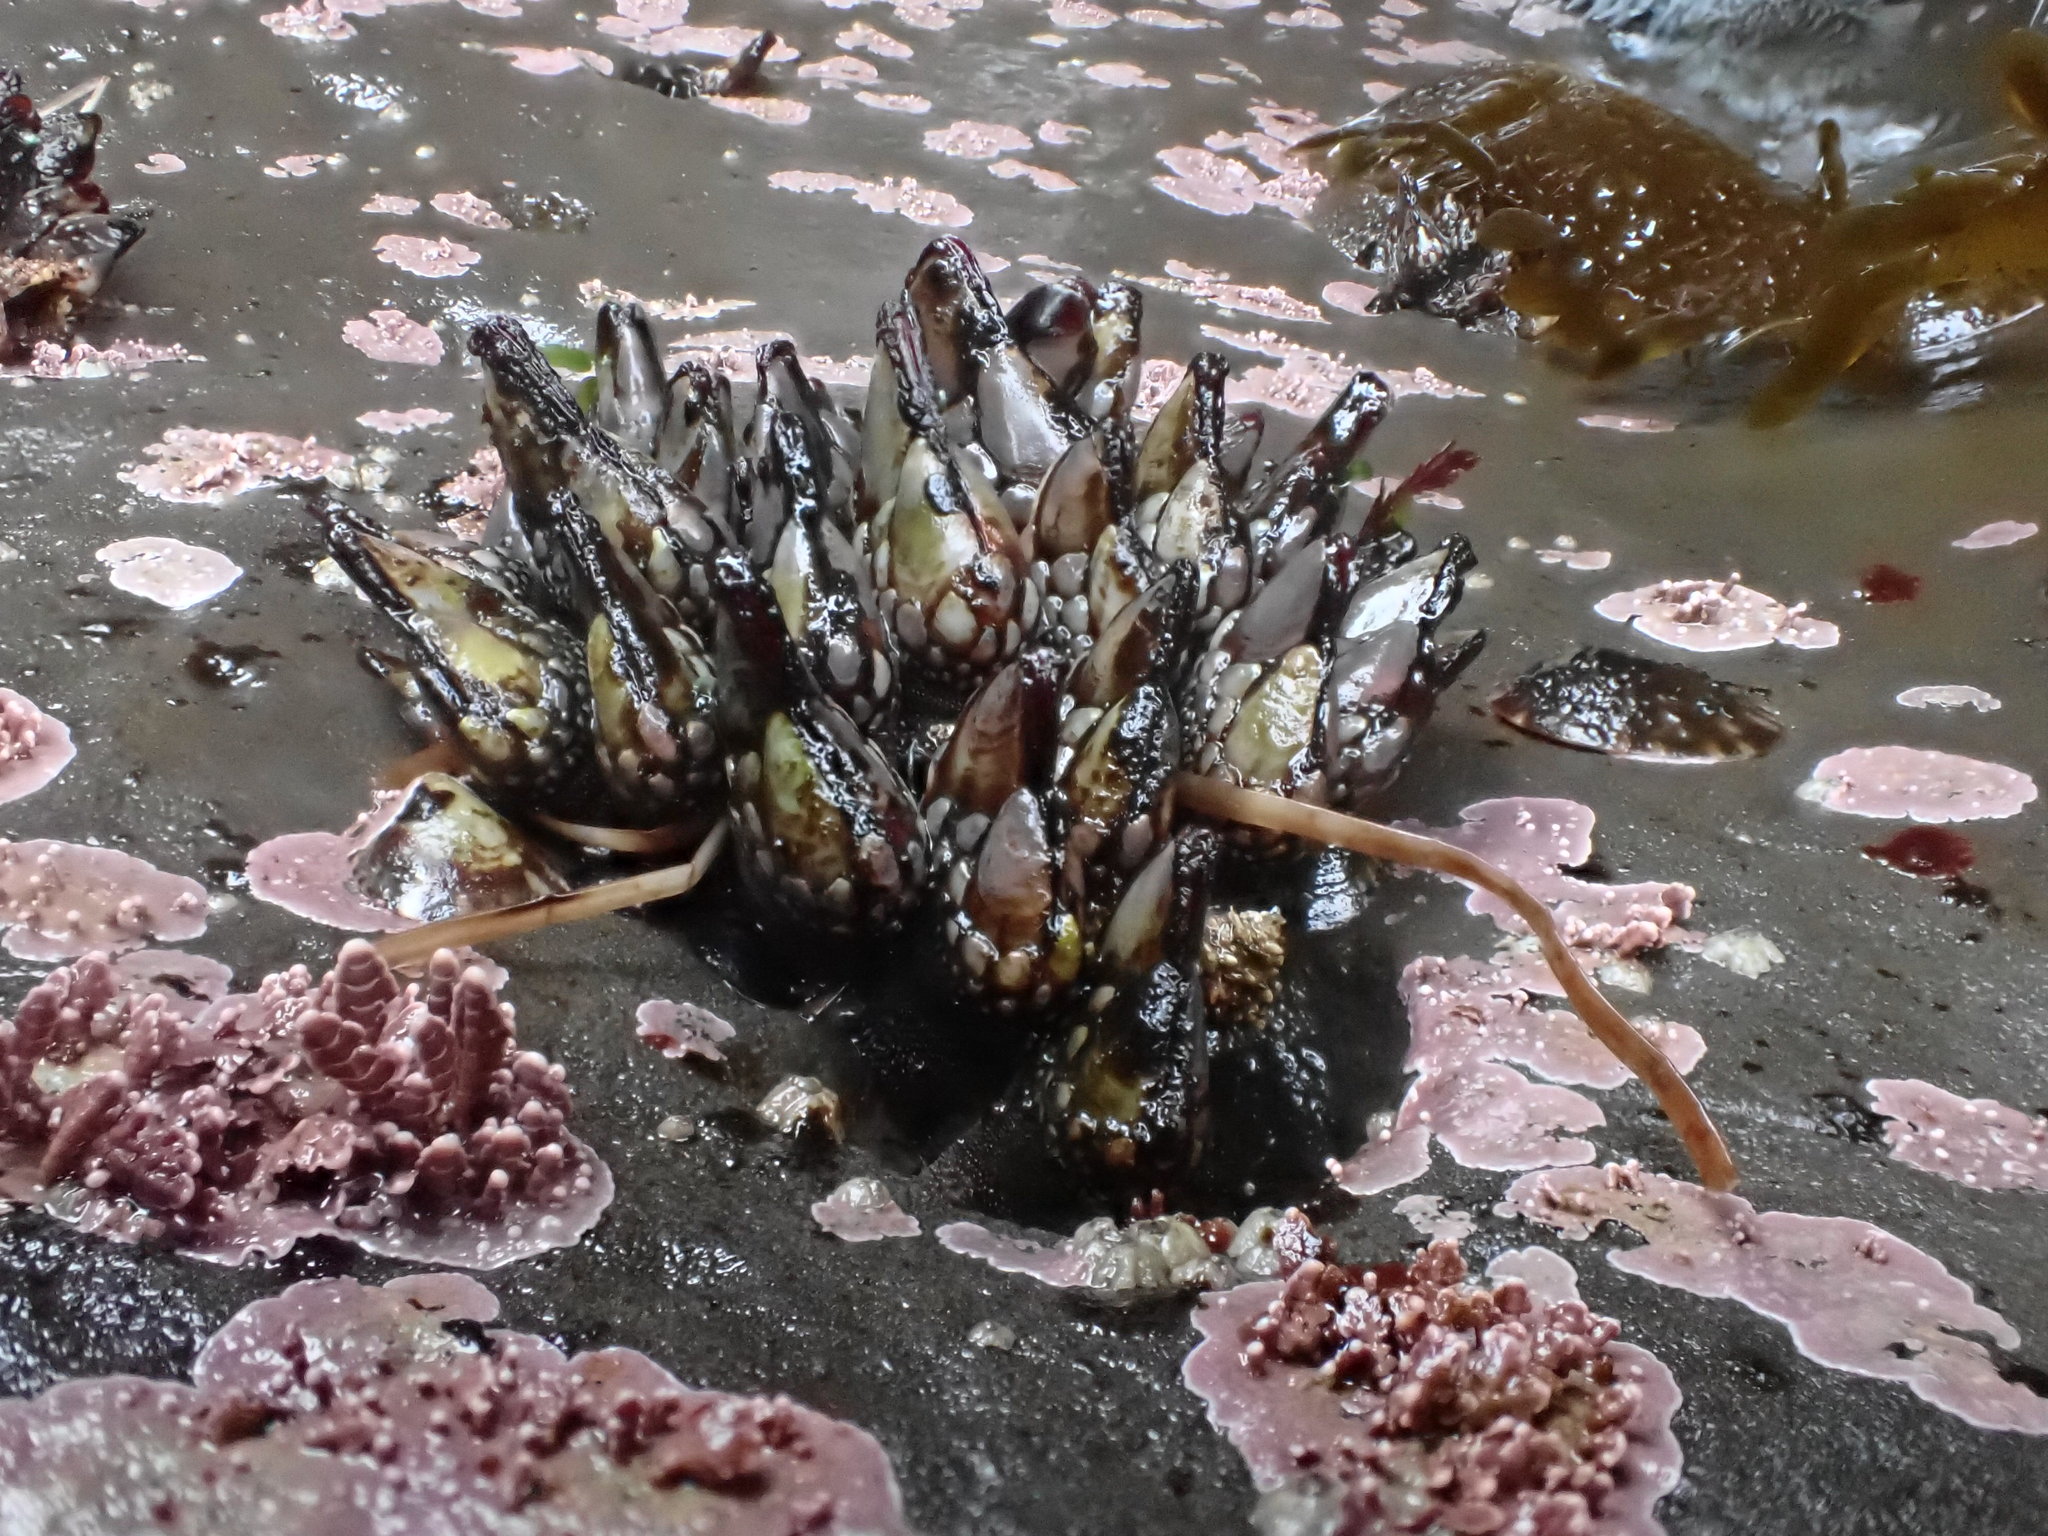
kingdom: Animalia
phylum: Arthropoda
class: Maxillopoda
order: Pedunculata
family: Pollicipedidae
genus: Pollicipes
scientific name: Pollicipes polymerus
